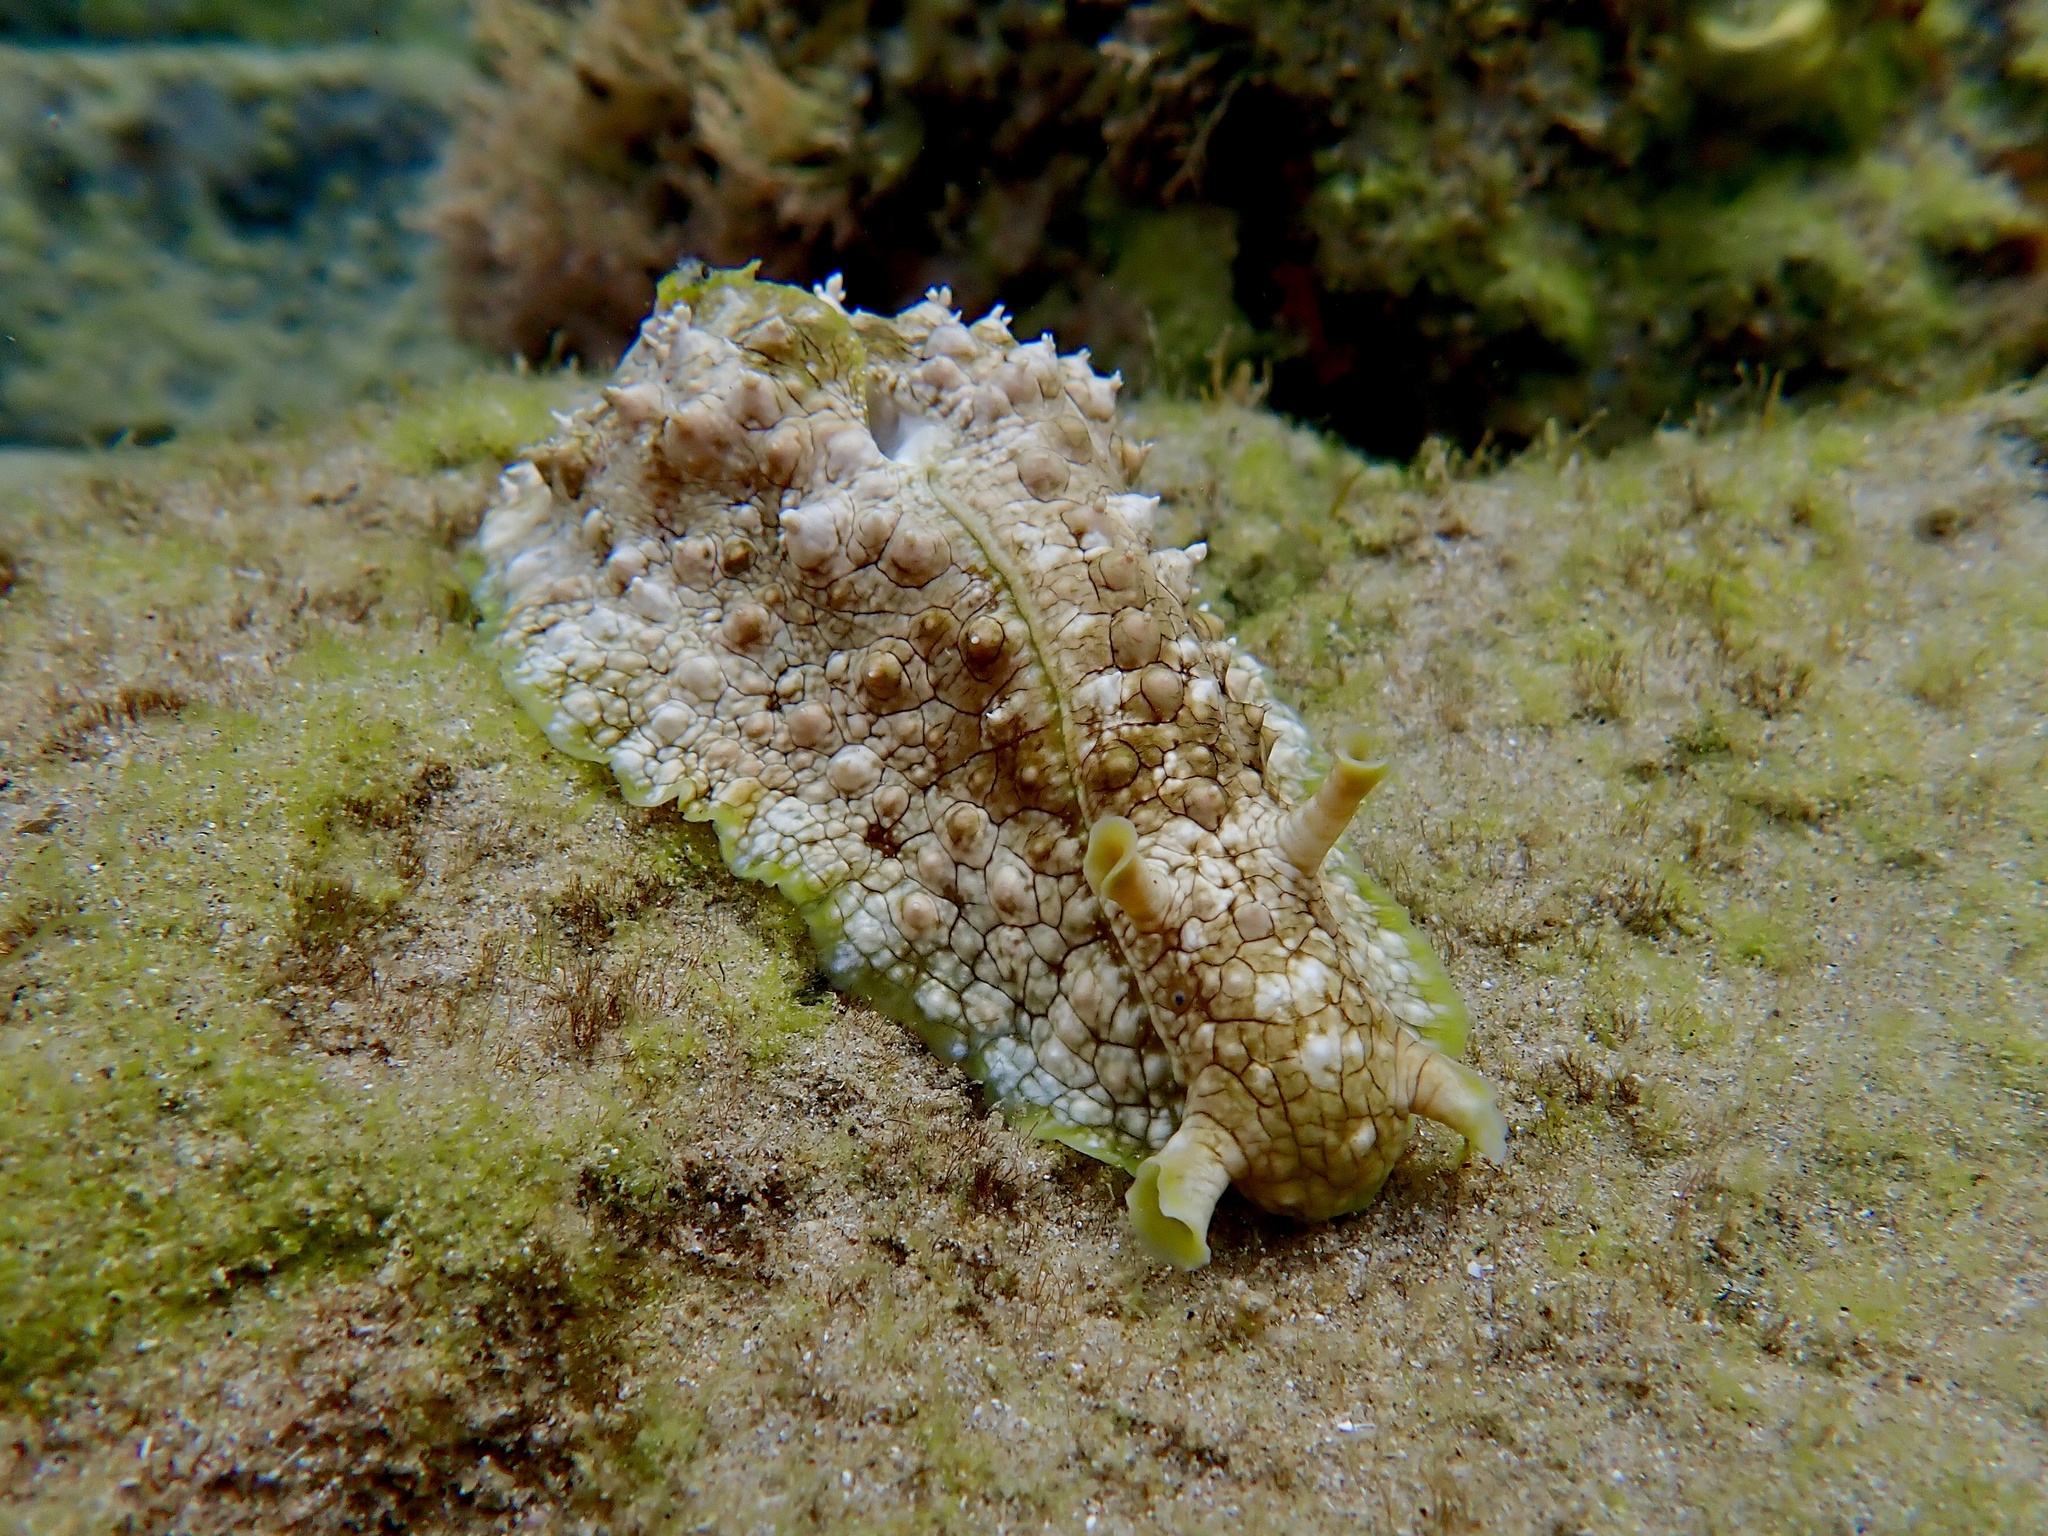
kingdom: Animalia
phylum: Mollusca
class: Gastropoda
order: Aplysiida
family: Aplysiidae
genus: Dolabrifera
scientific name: Dolabrifera brazieri
